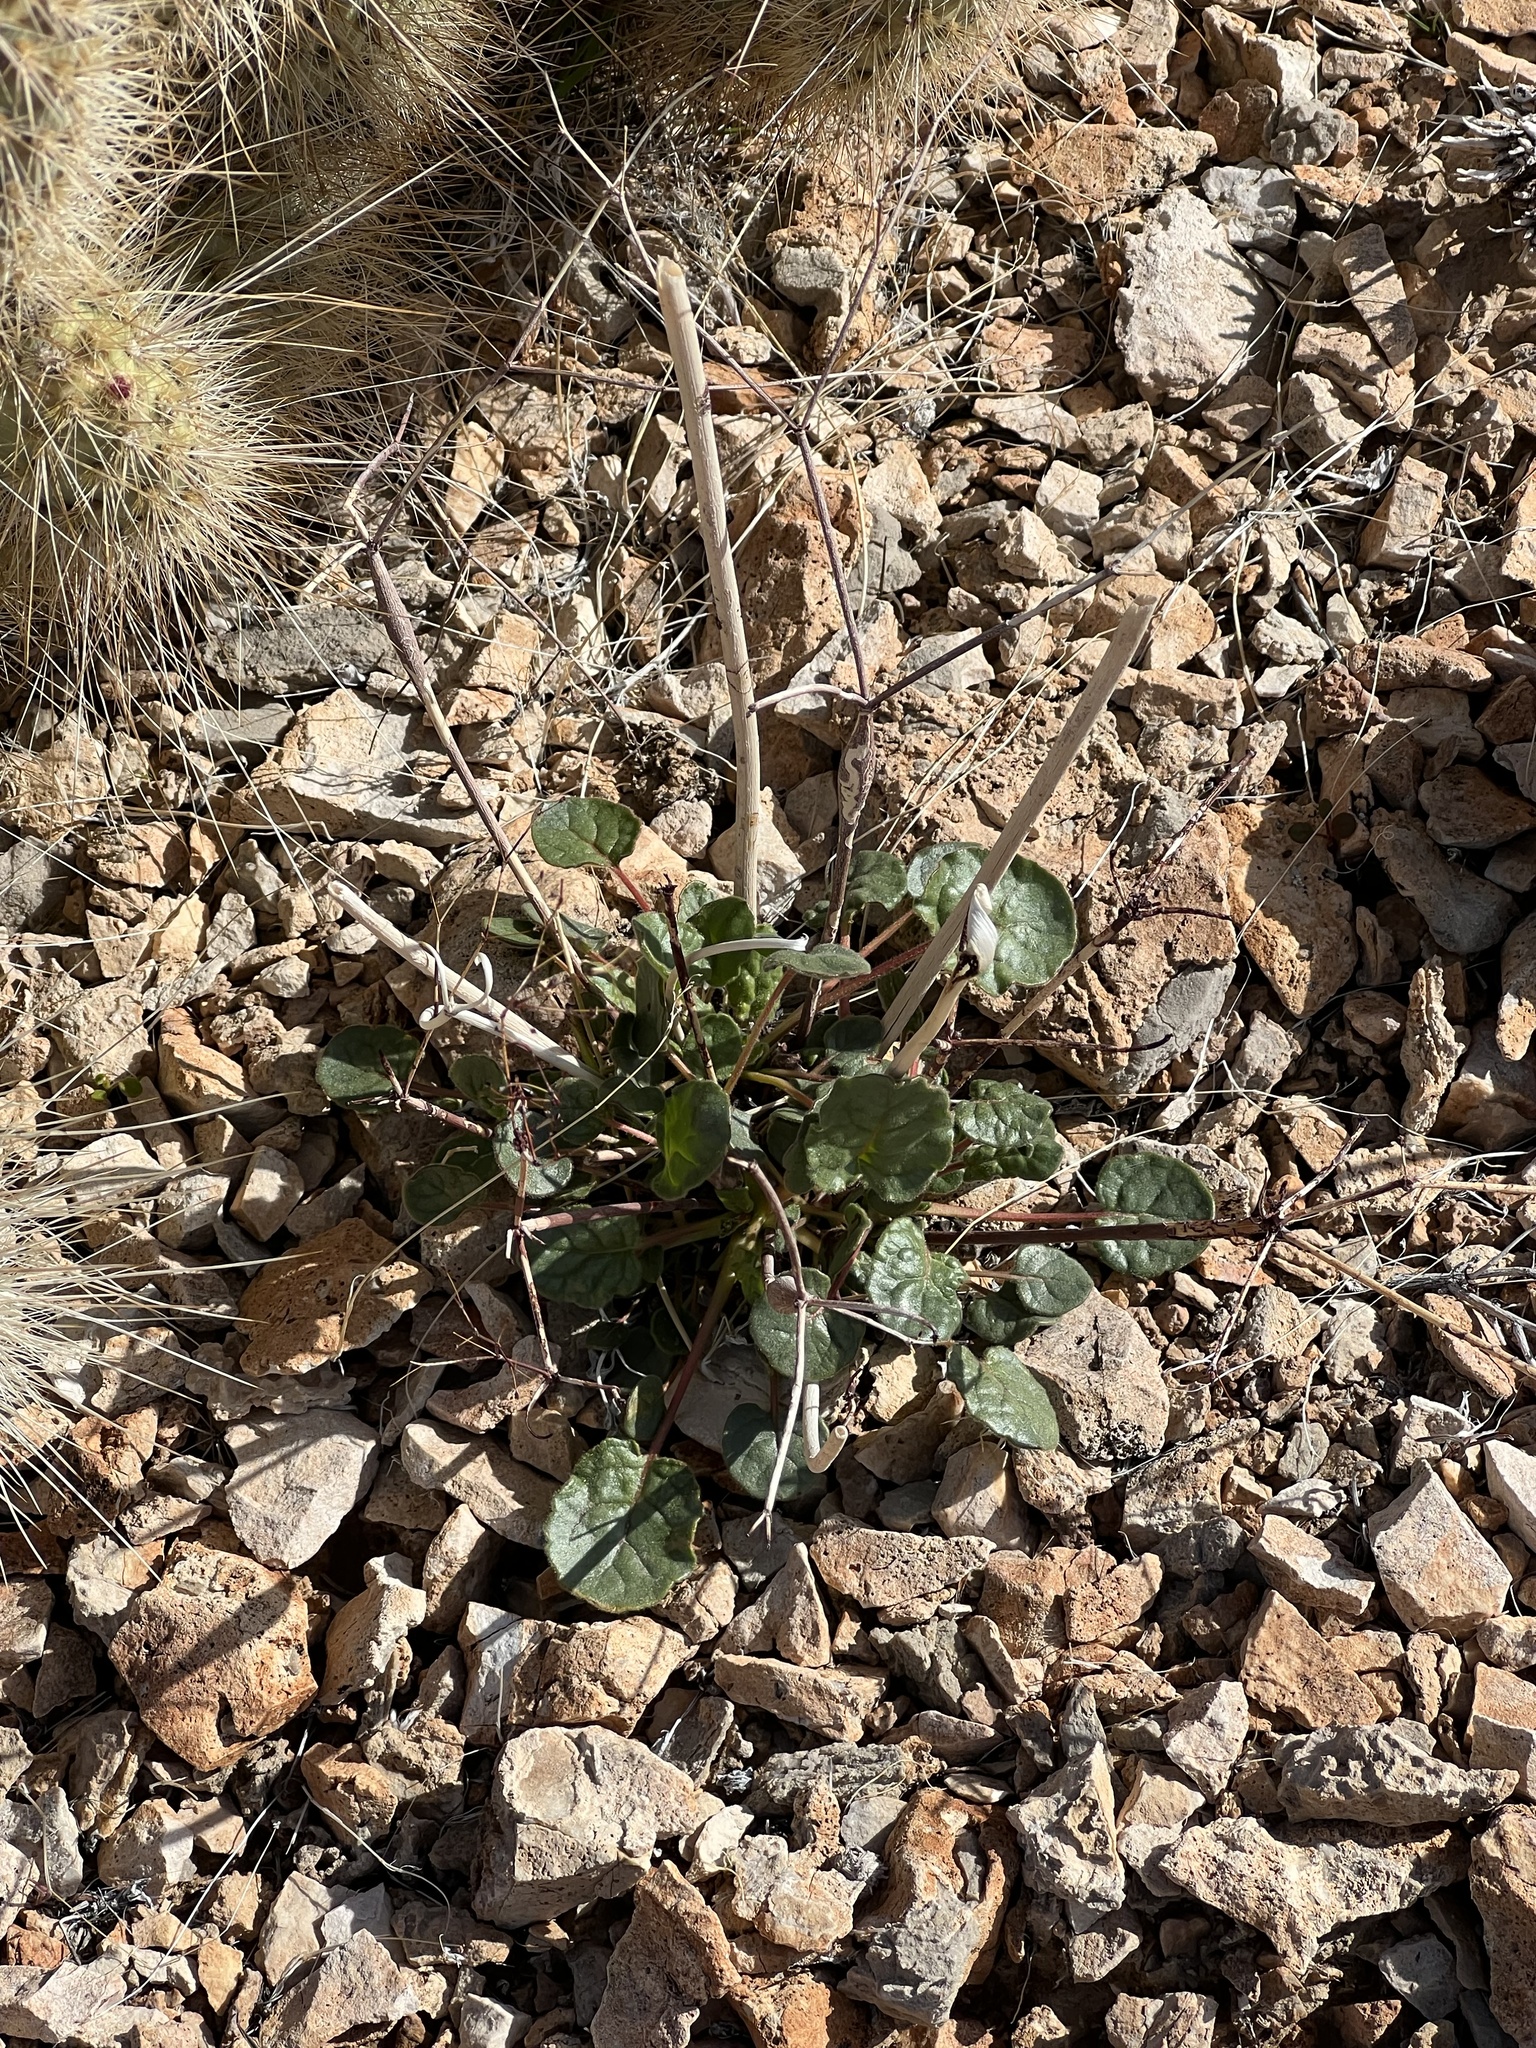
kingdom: Plantae
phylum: Tracheophyta
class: Magnoliopsida
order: Caryophyllales
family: Polygonaceae
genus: Eriogonum
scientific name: Eriogonum inflatum
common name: Desert trumpet
